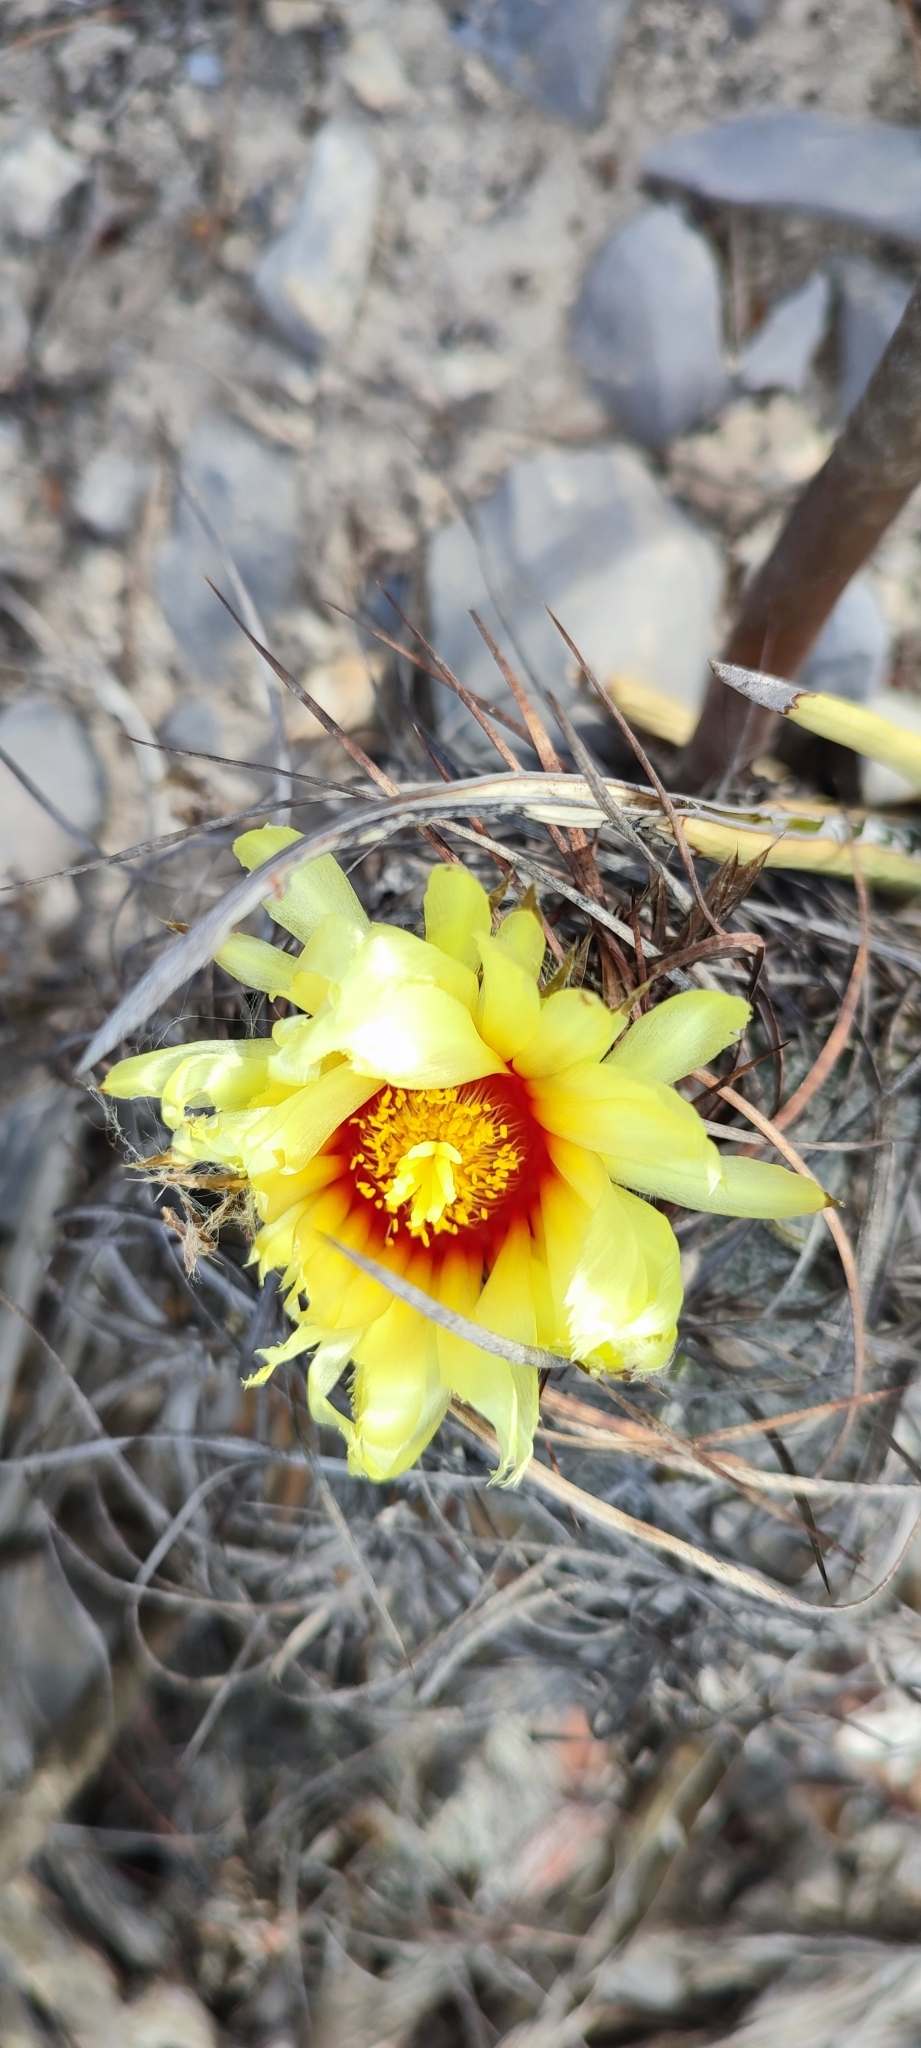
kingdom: Plantae
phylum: Tracheophyta
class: Magnoliopsida
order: Caryophyllales
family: Cactaceae
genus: Astrophytum
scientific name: Astrophytum capricorne
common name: Bishop's-cap
